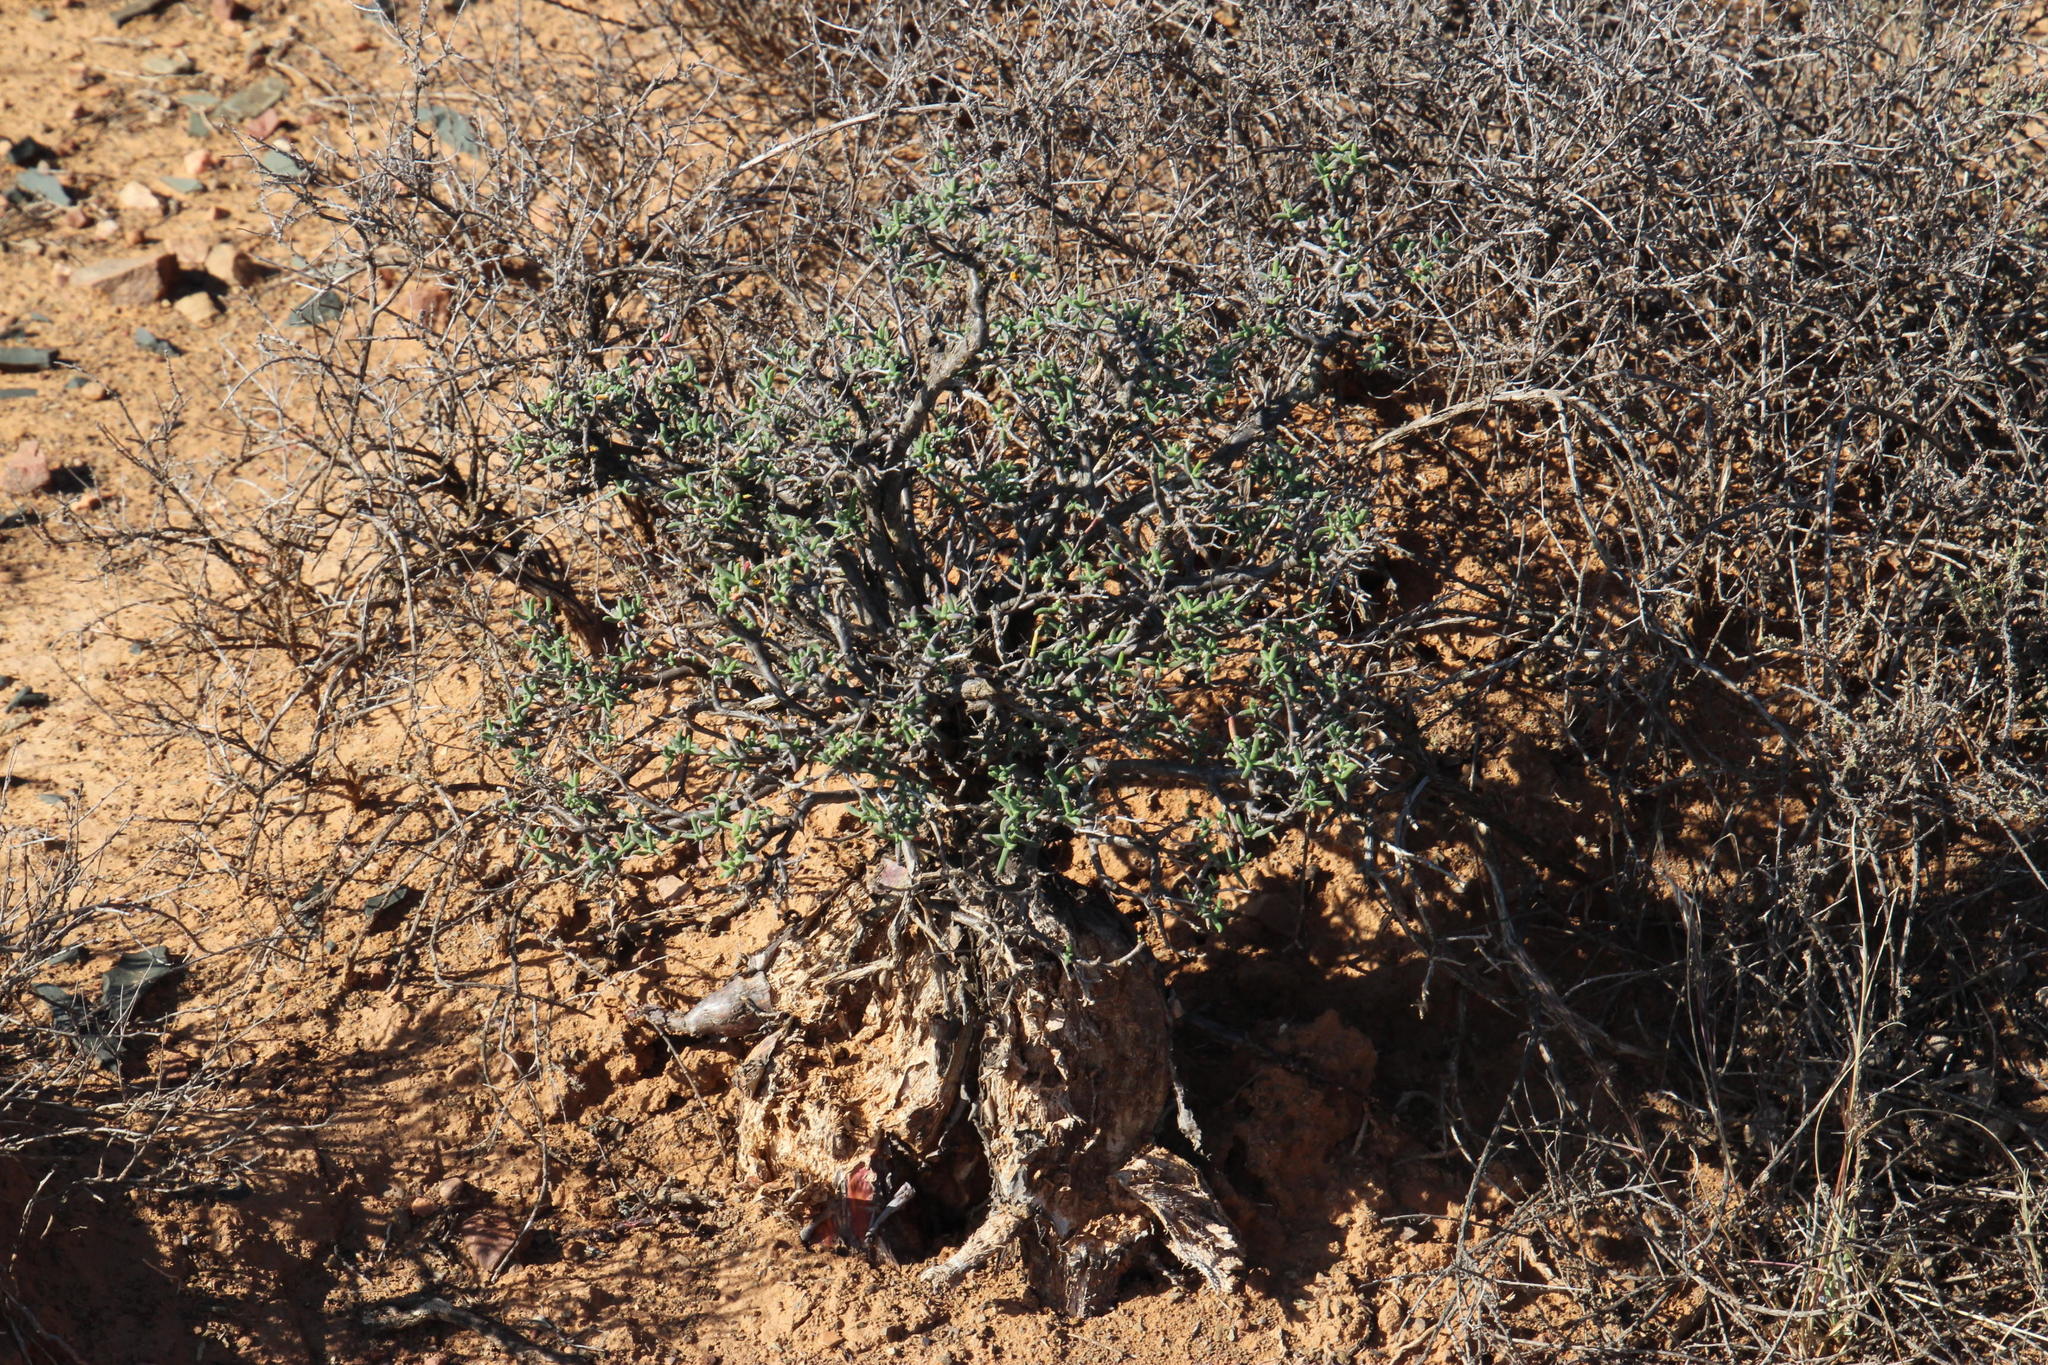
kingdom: Animalia
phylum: Chordata
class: Mammalia
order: Rodentia
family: Hystricidae
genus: Hystrix
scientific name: Hystrix africaeaustralis
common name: Cape porcupine
